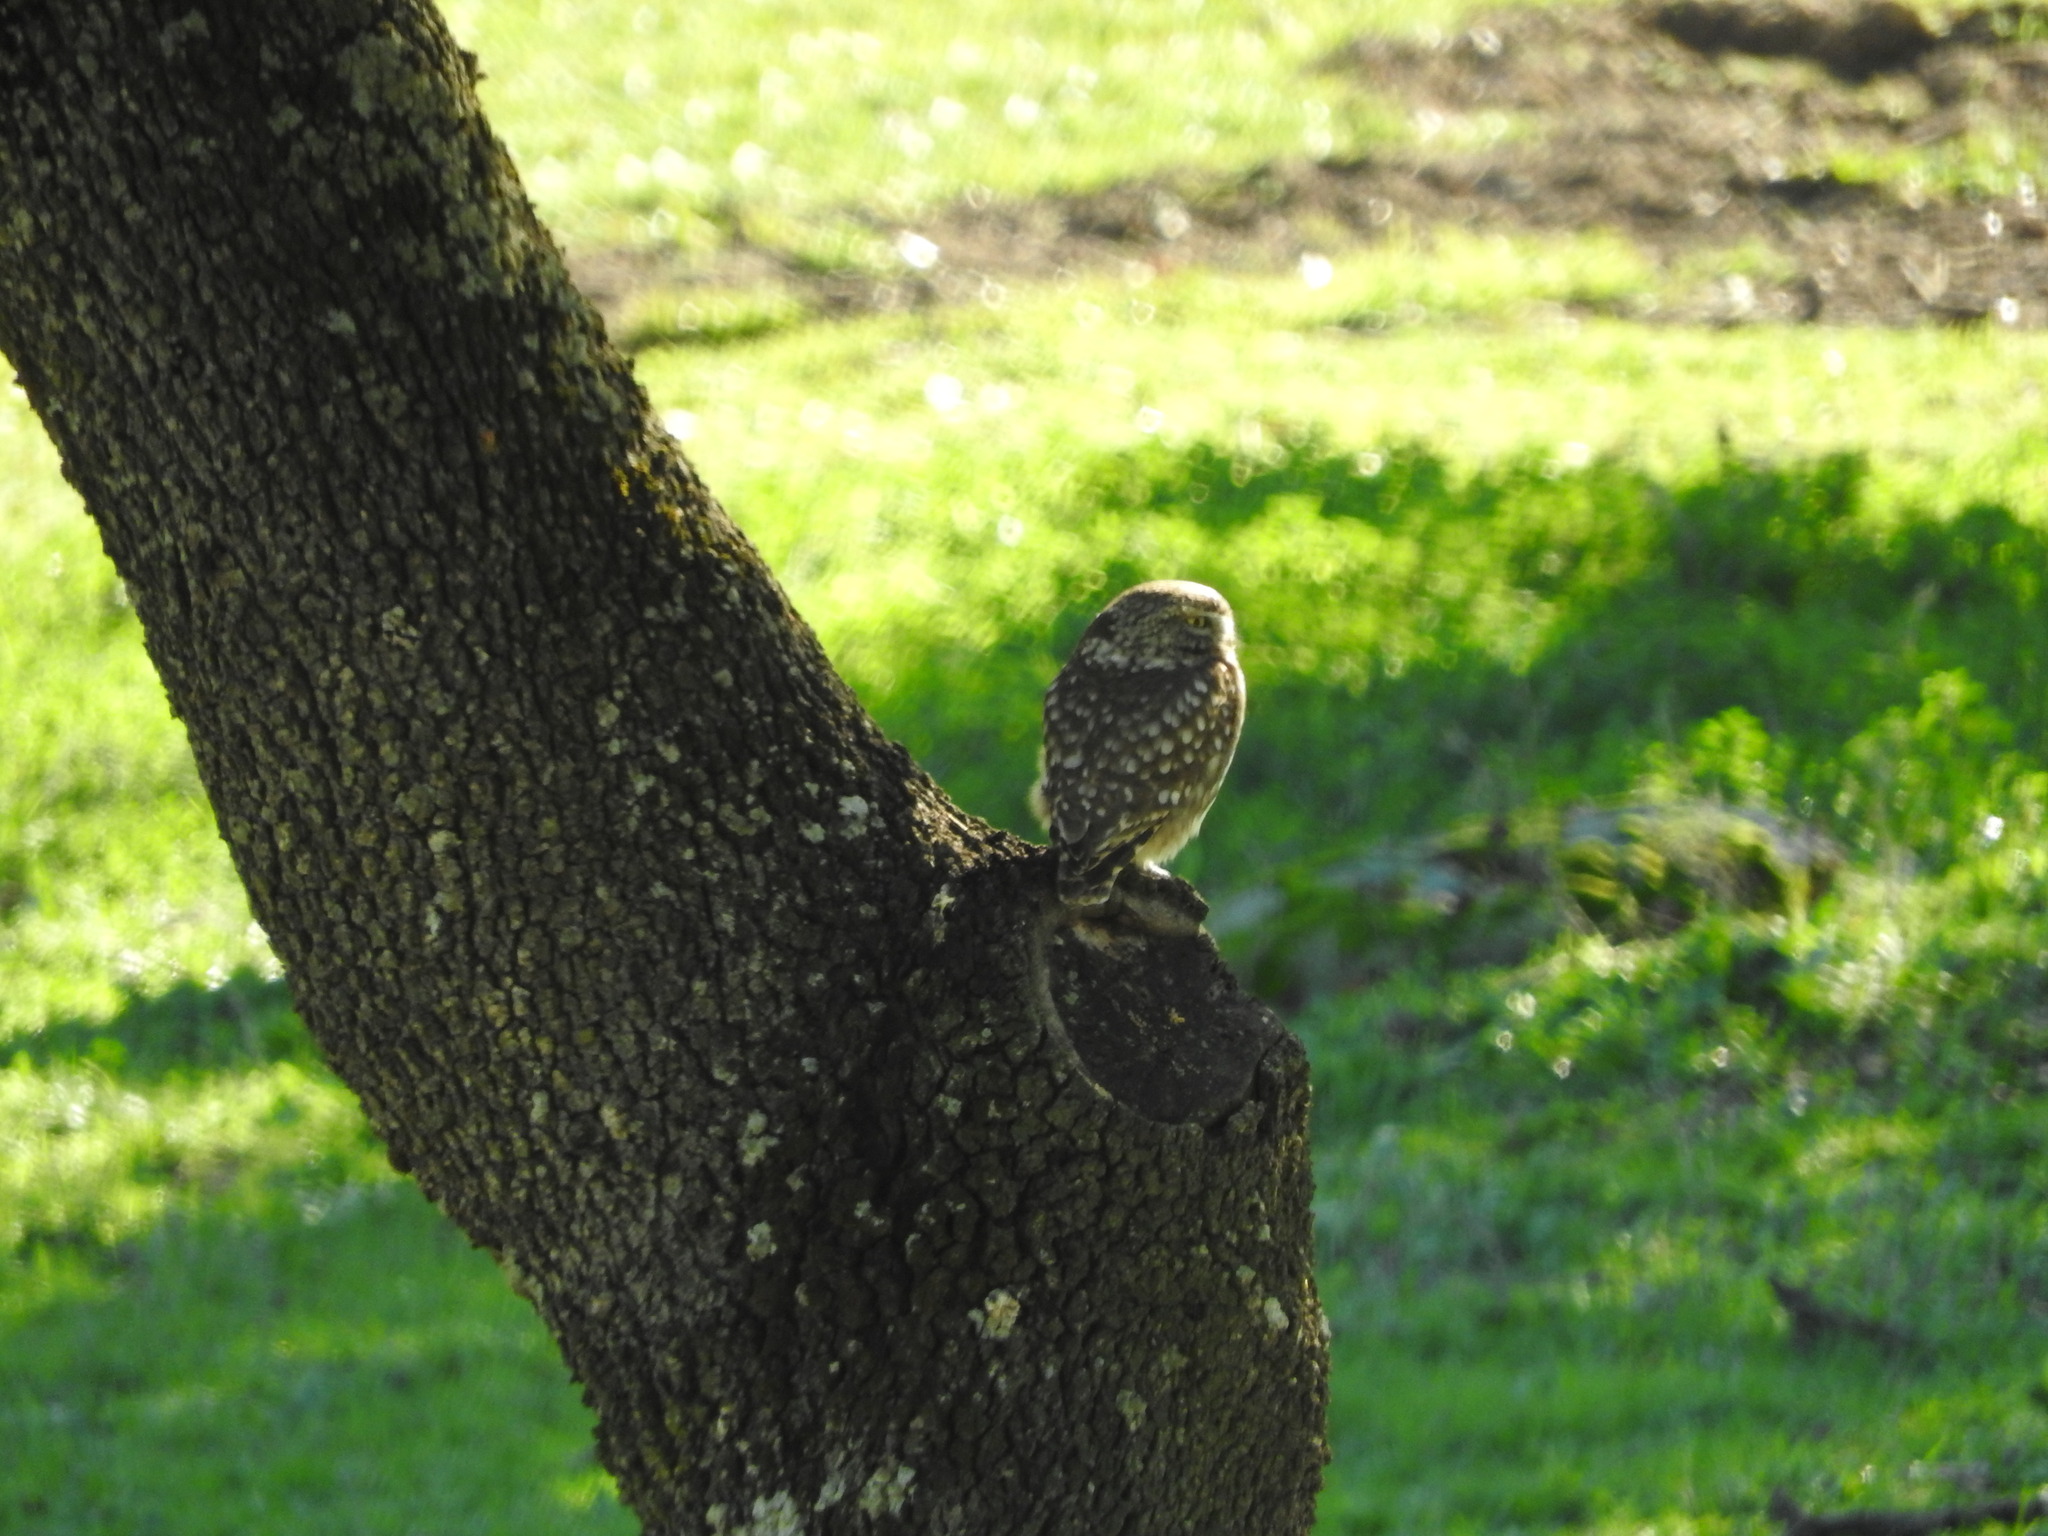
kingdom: Animalia
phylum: Chordata
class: Aves
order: Strigiformes
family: Strigidae
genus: Athene
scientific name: Athene noctua
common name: Little owl
